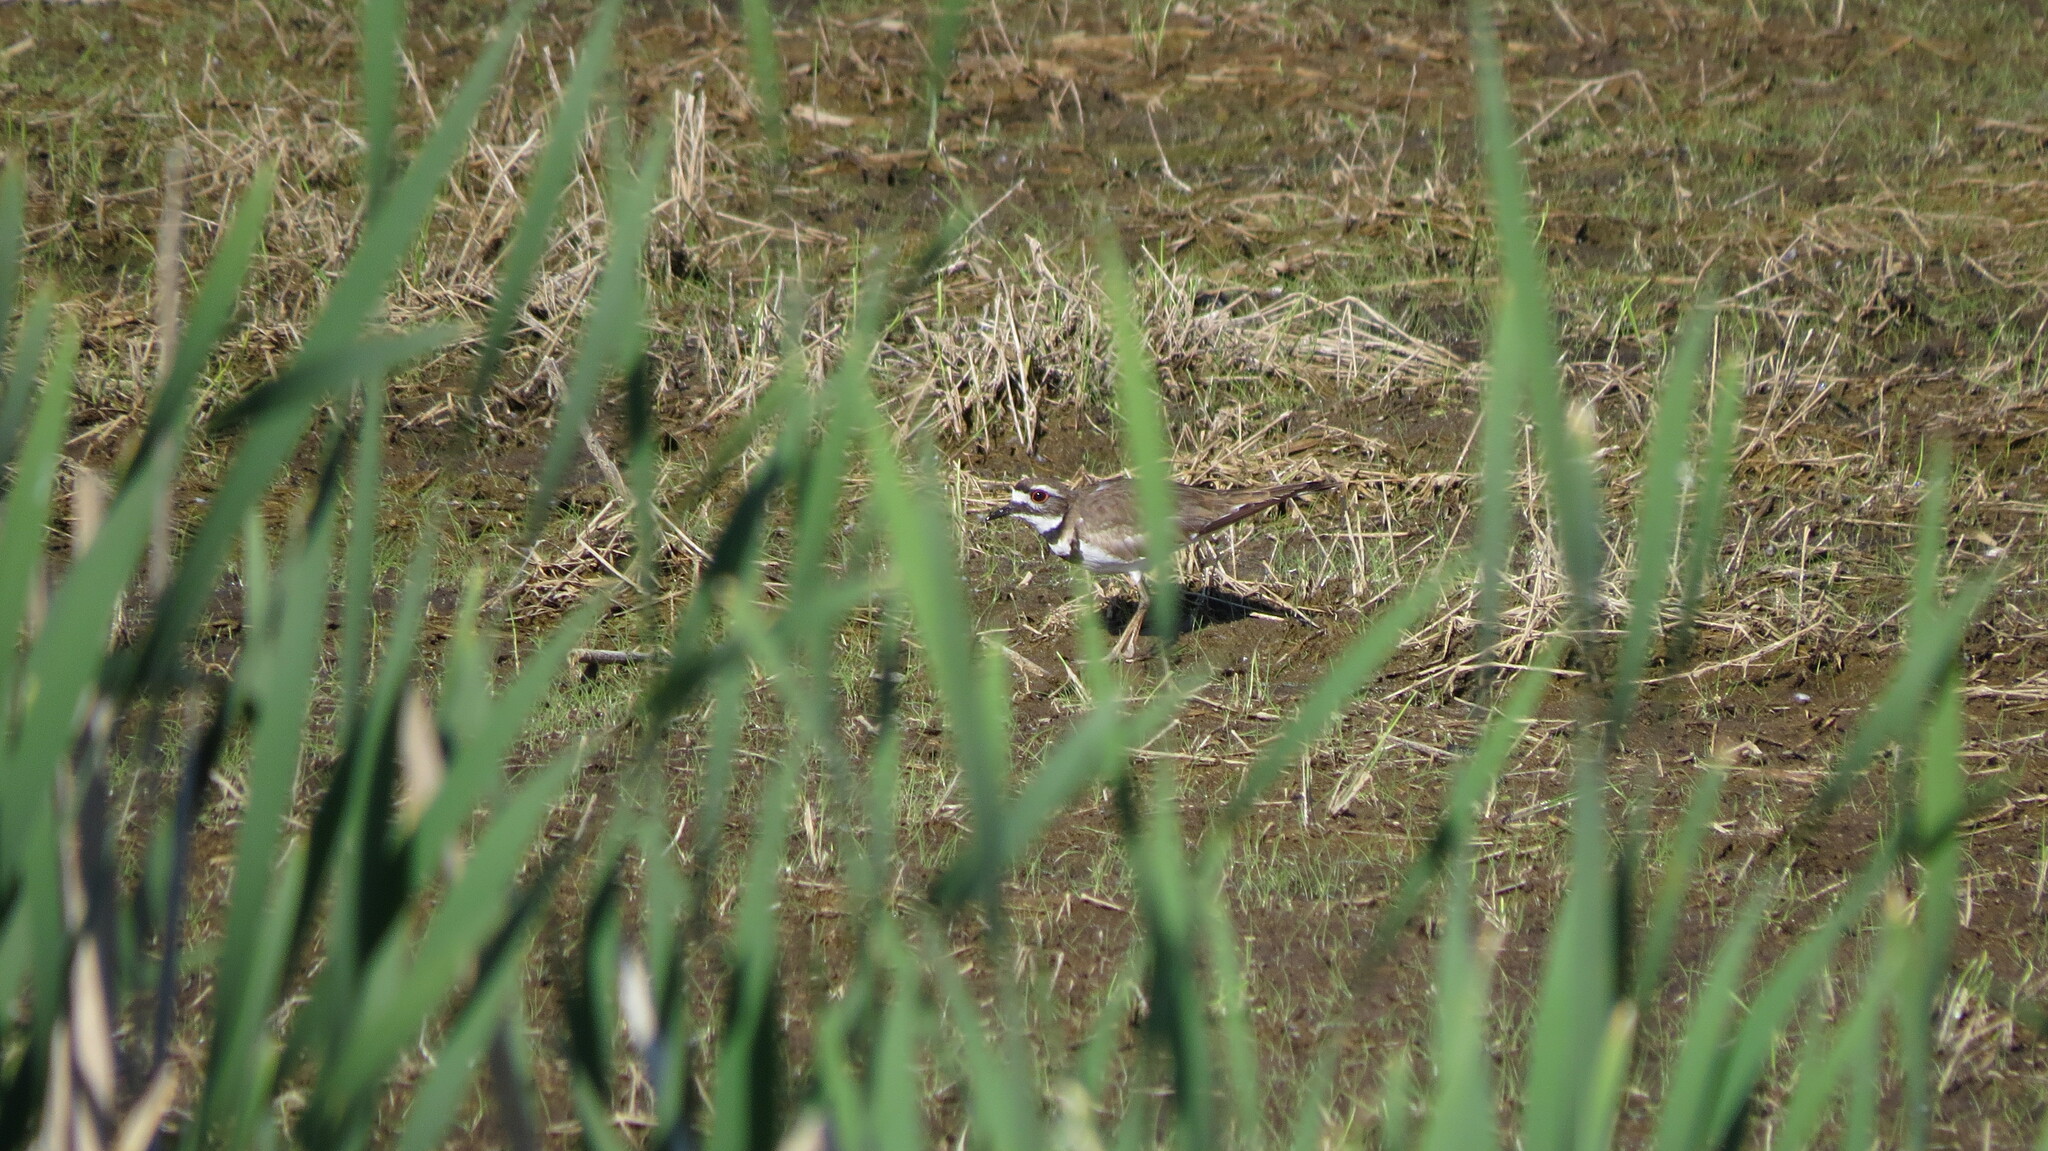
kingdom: Animalia
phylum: Chordata
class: Aves
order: Charadriiformes
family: Charadriidae
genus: Charadrius
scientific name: Charadrius vociferus
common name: Killdeer
